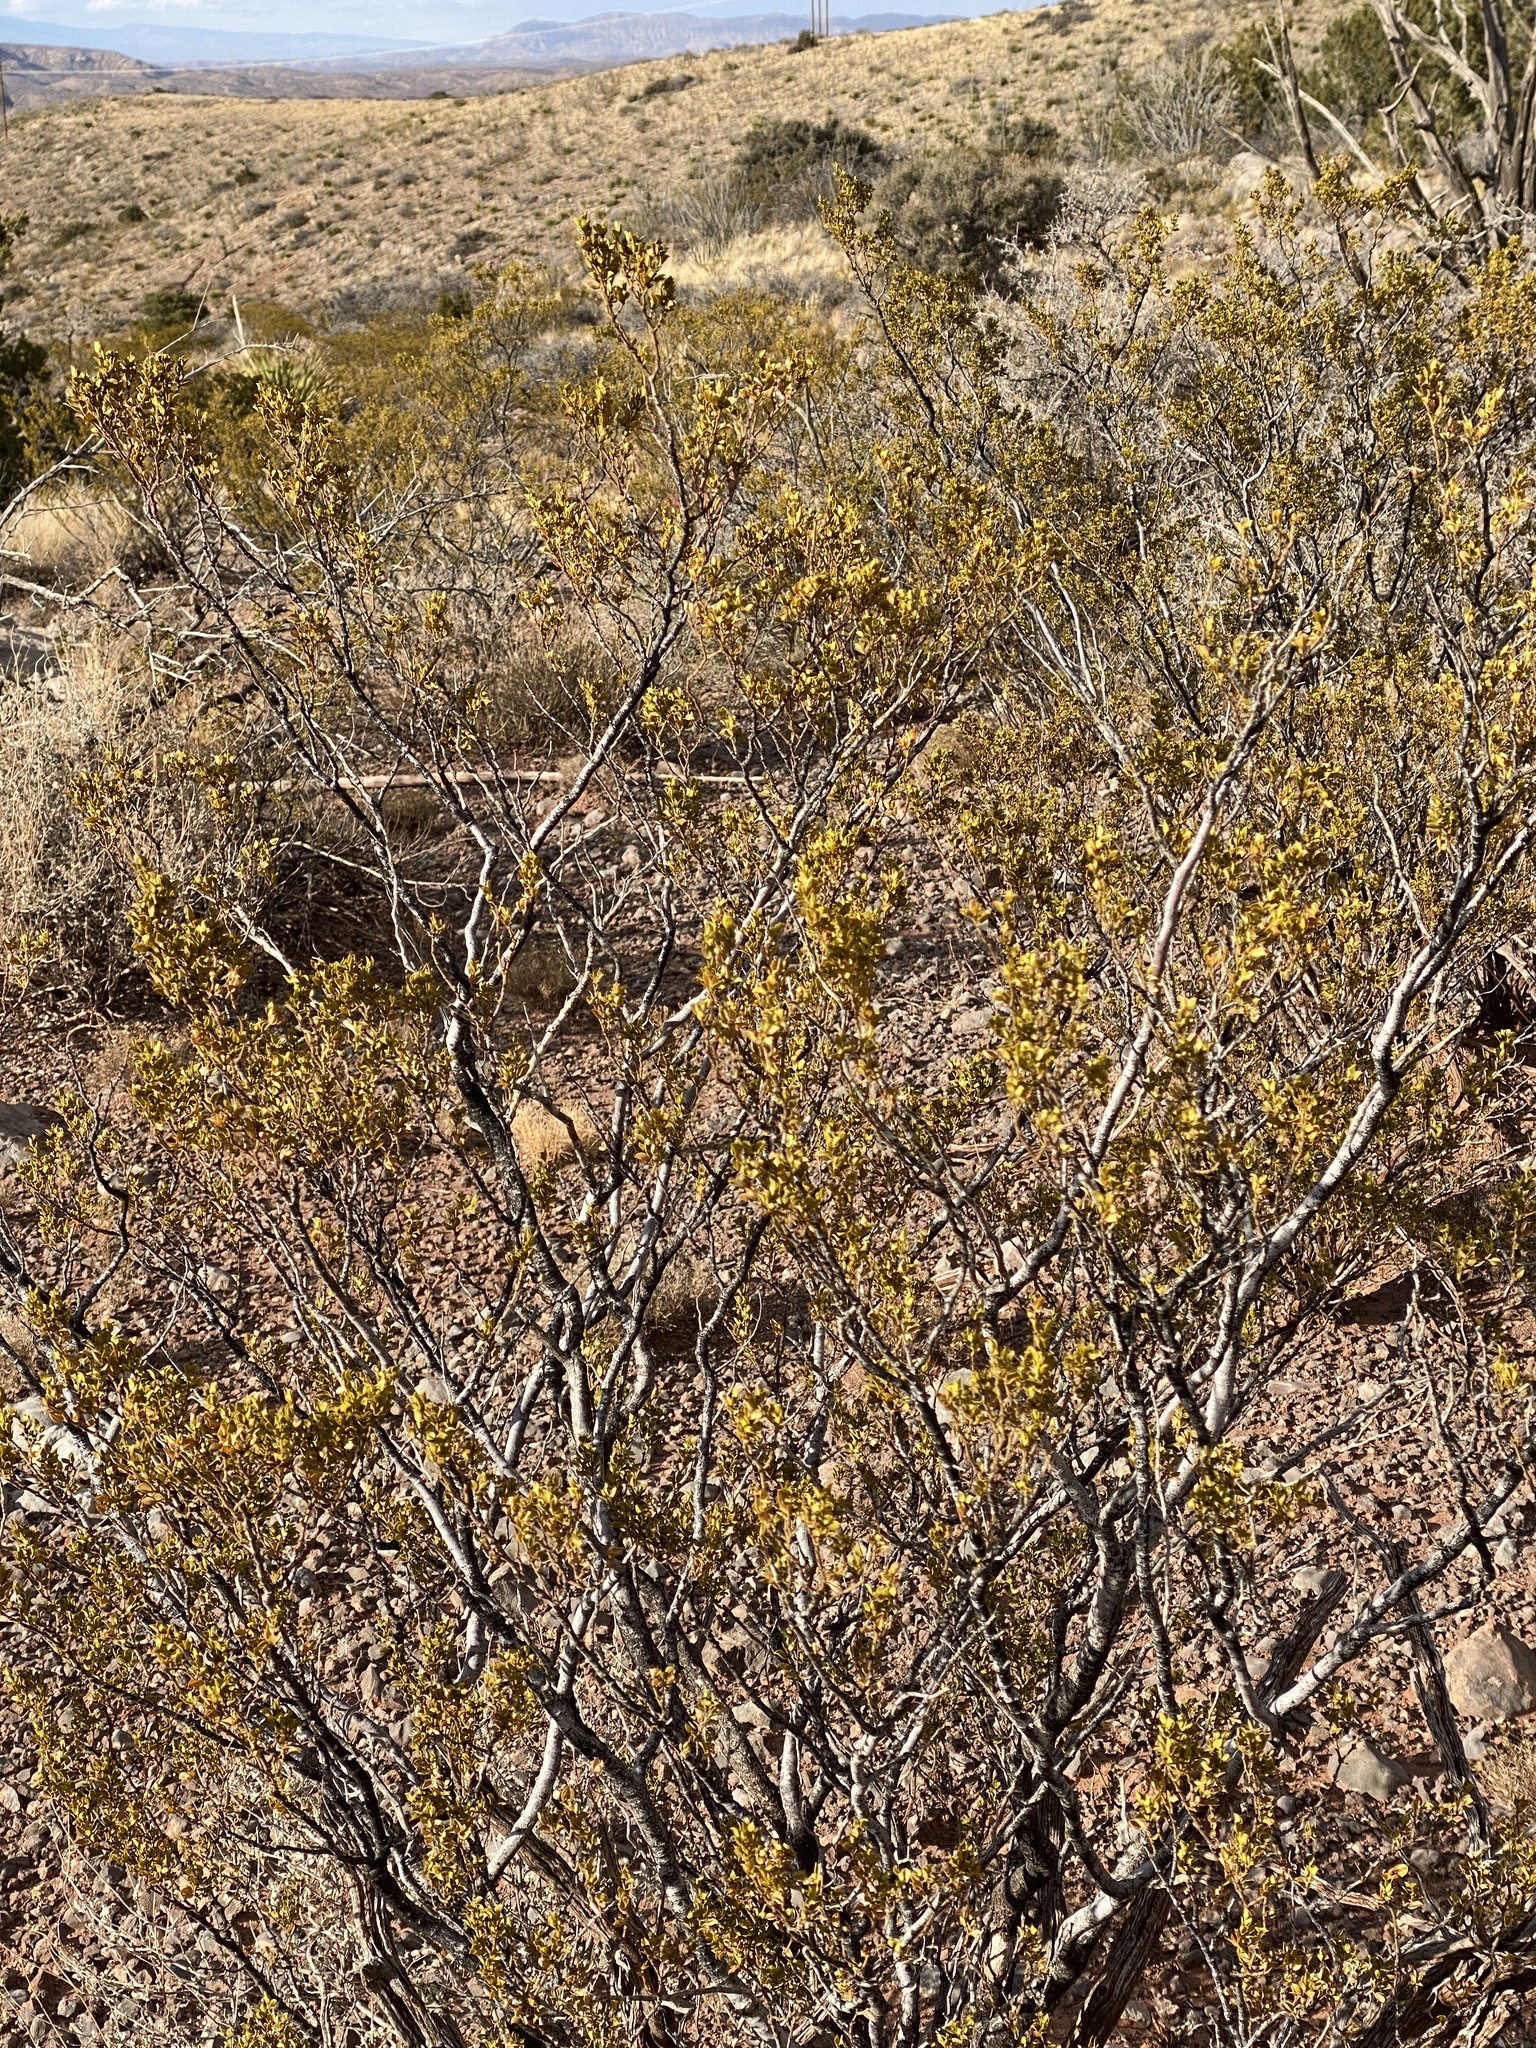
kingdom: Plantae
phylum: Tracheophyta
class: Magnoliopsida
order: Zygophyllales
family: Zygophyllaceae
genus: Larrea
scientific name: Larrea tridentata
